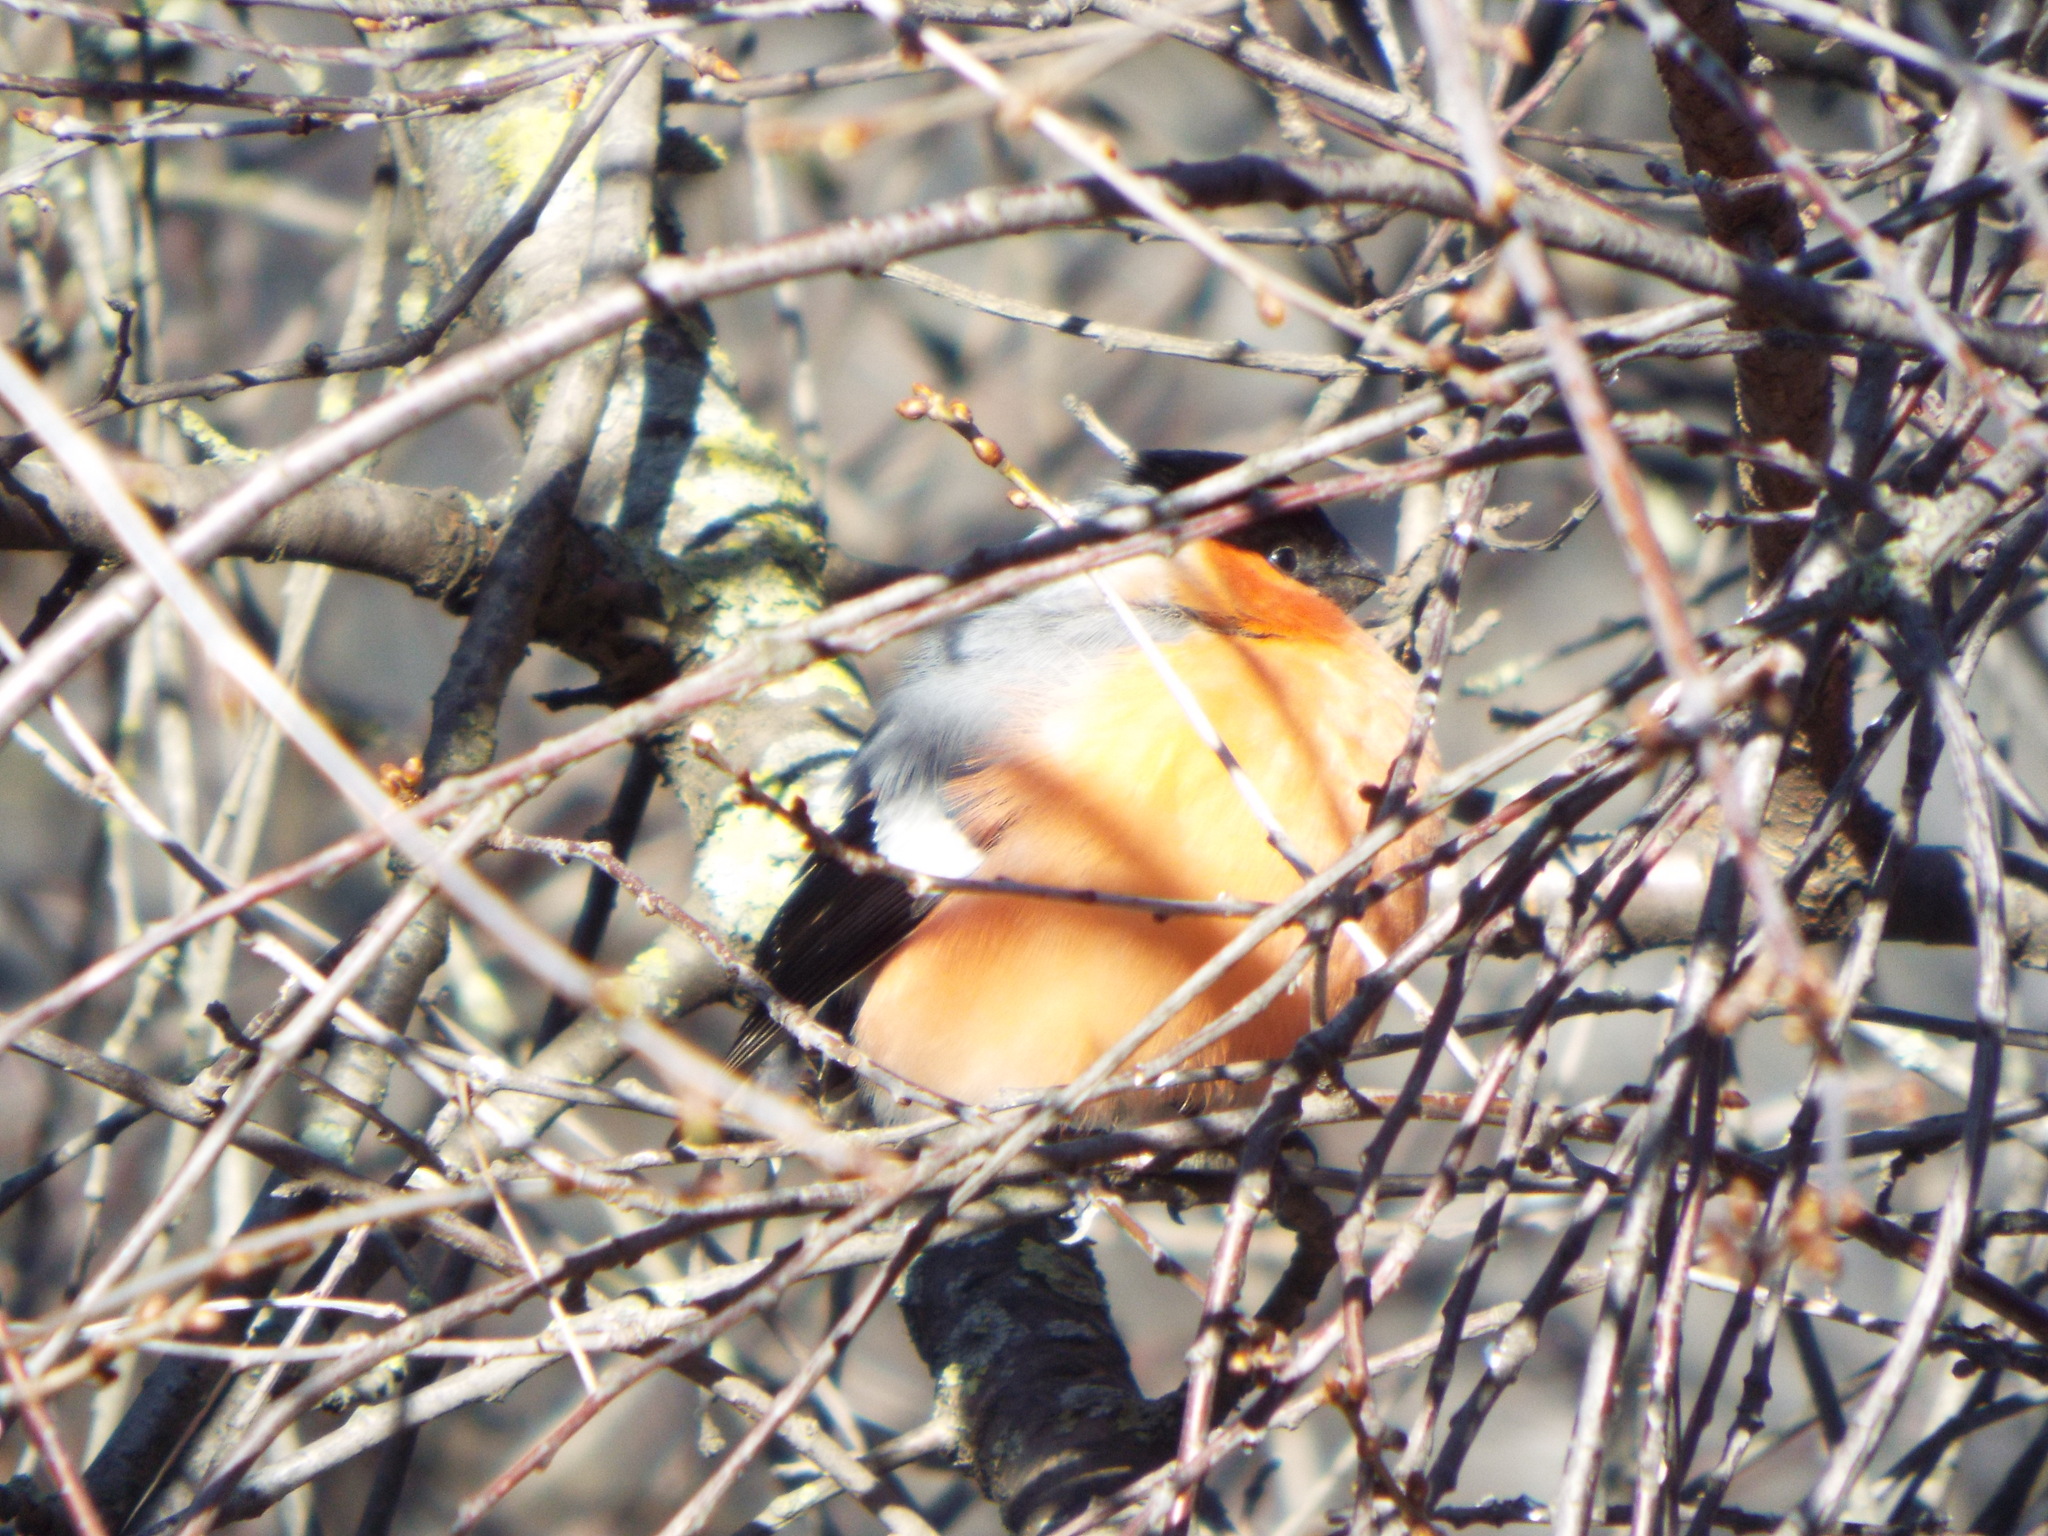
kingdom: Animalia
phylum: Chordata
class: Aves
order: Passeriformes
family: Fringillidae
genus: Pyrrhula
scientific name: Pyrrhula pyrrhula
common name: Eurasian bullfinch
